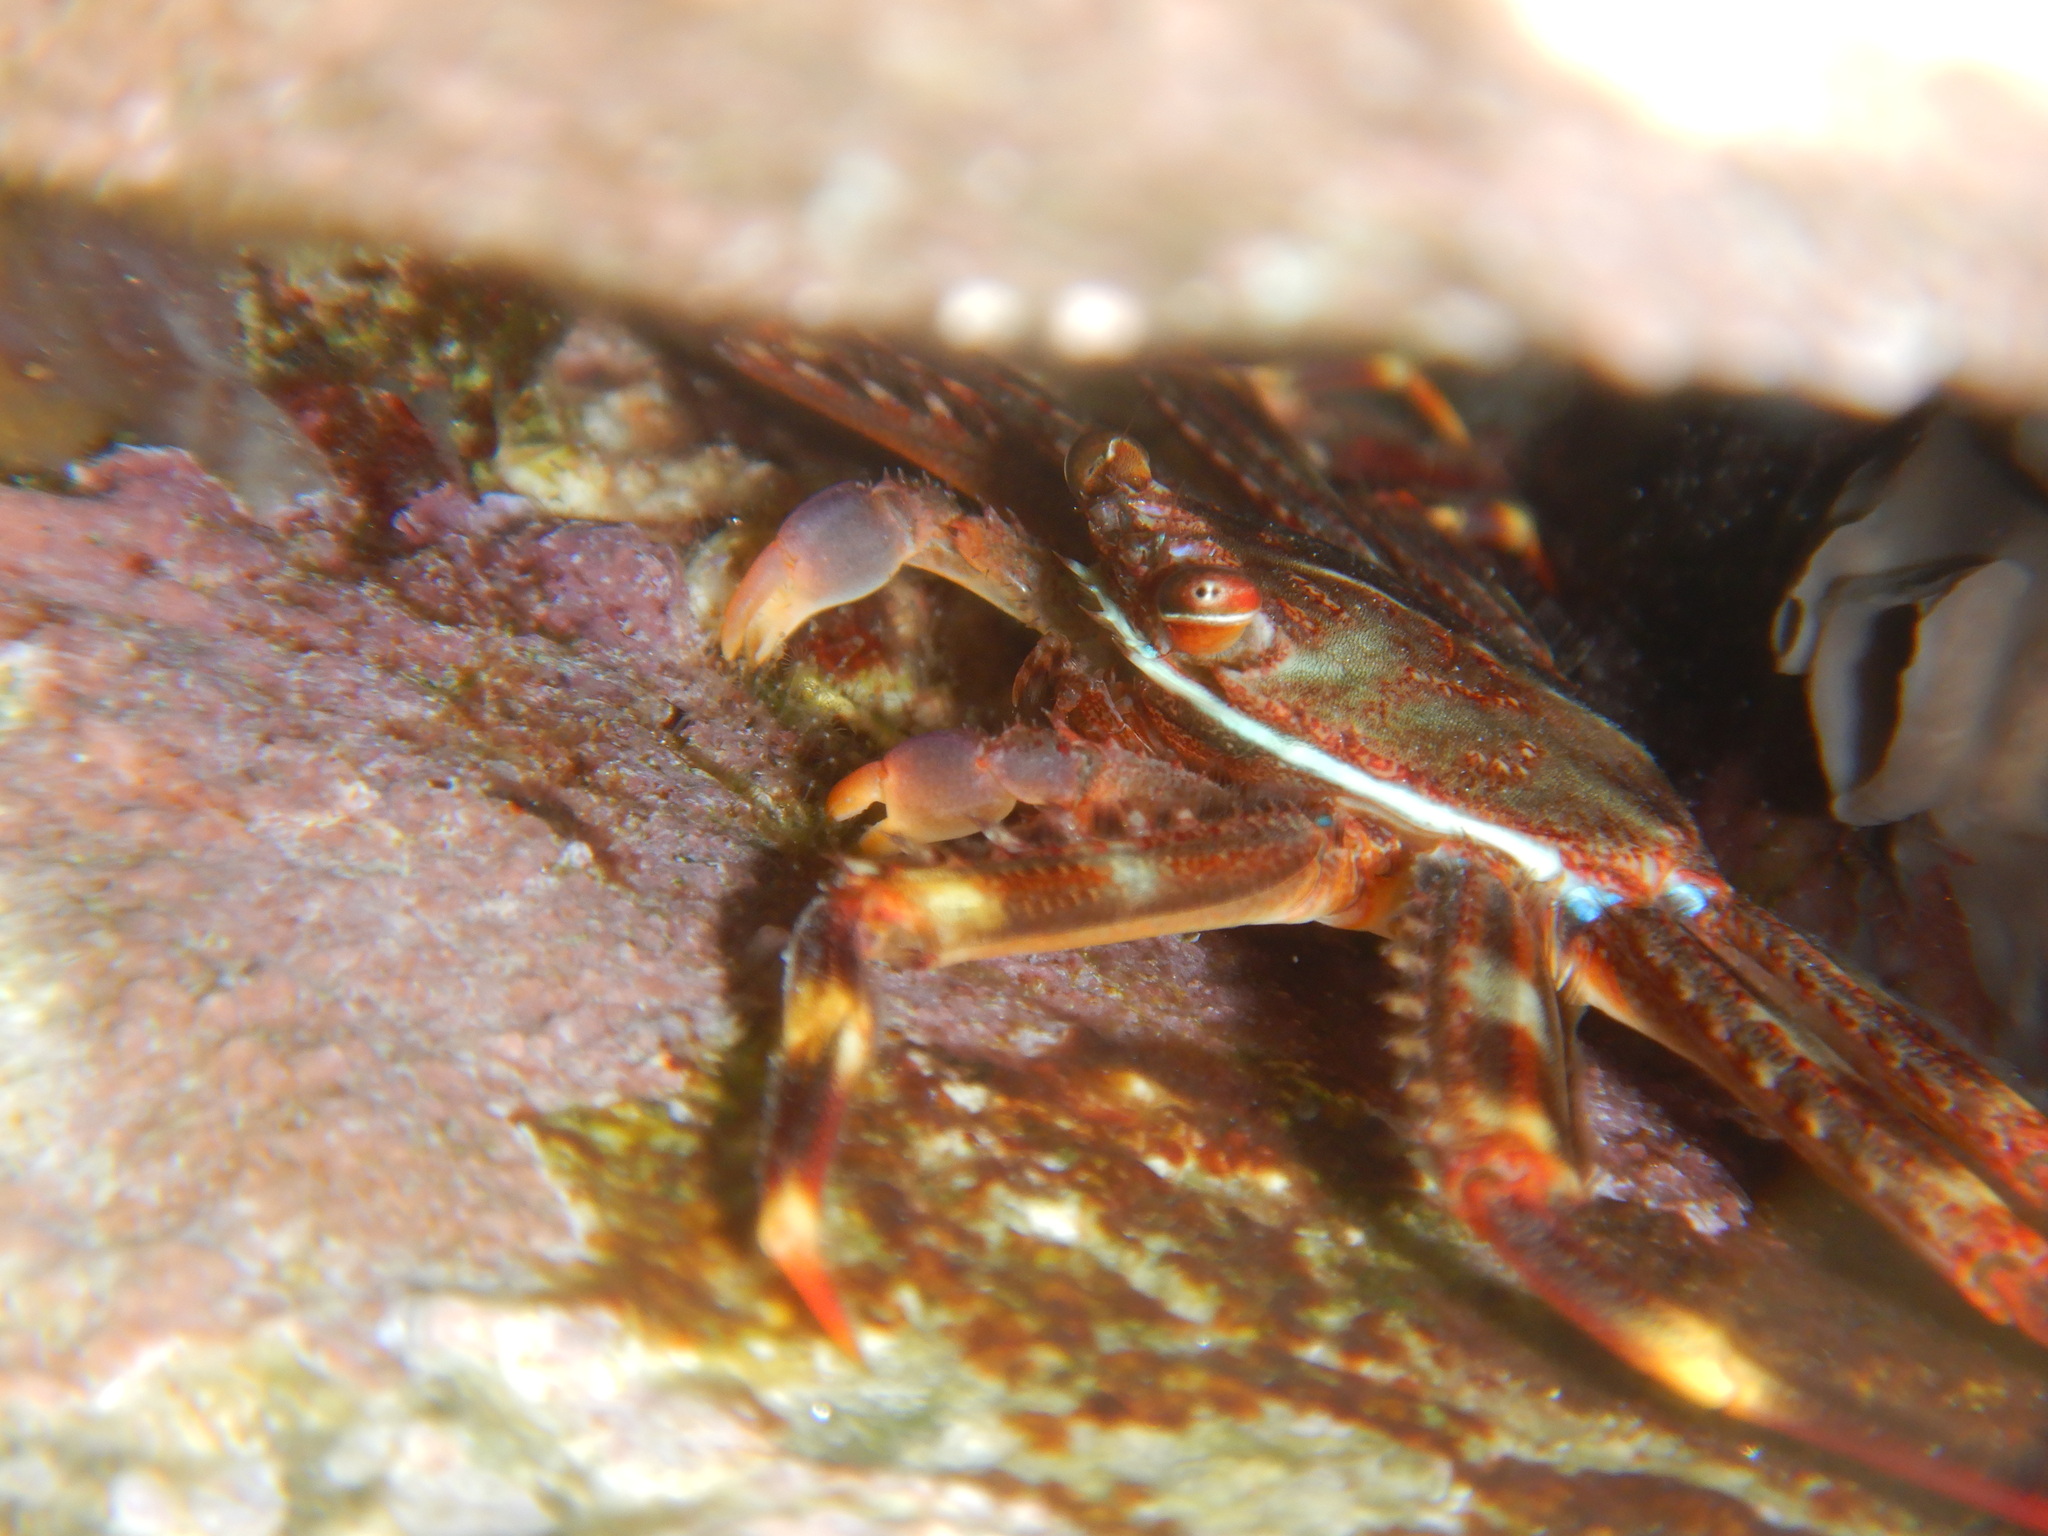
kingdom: Animalia
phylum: Arthropoda
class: Malacostraca
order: Decapoda
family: Percnidae
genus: Percnon
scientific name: Percnon gibbesi
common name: Nimble spray crab
